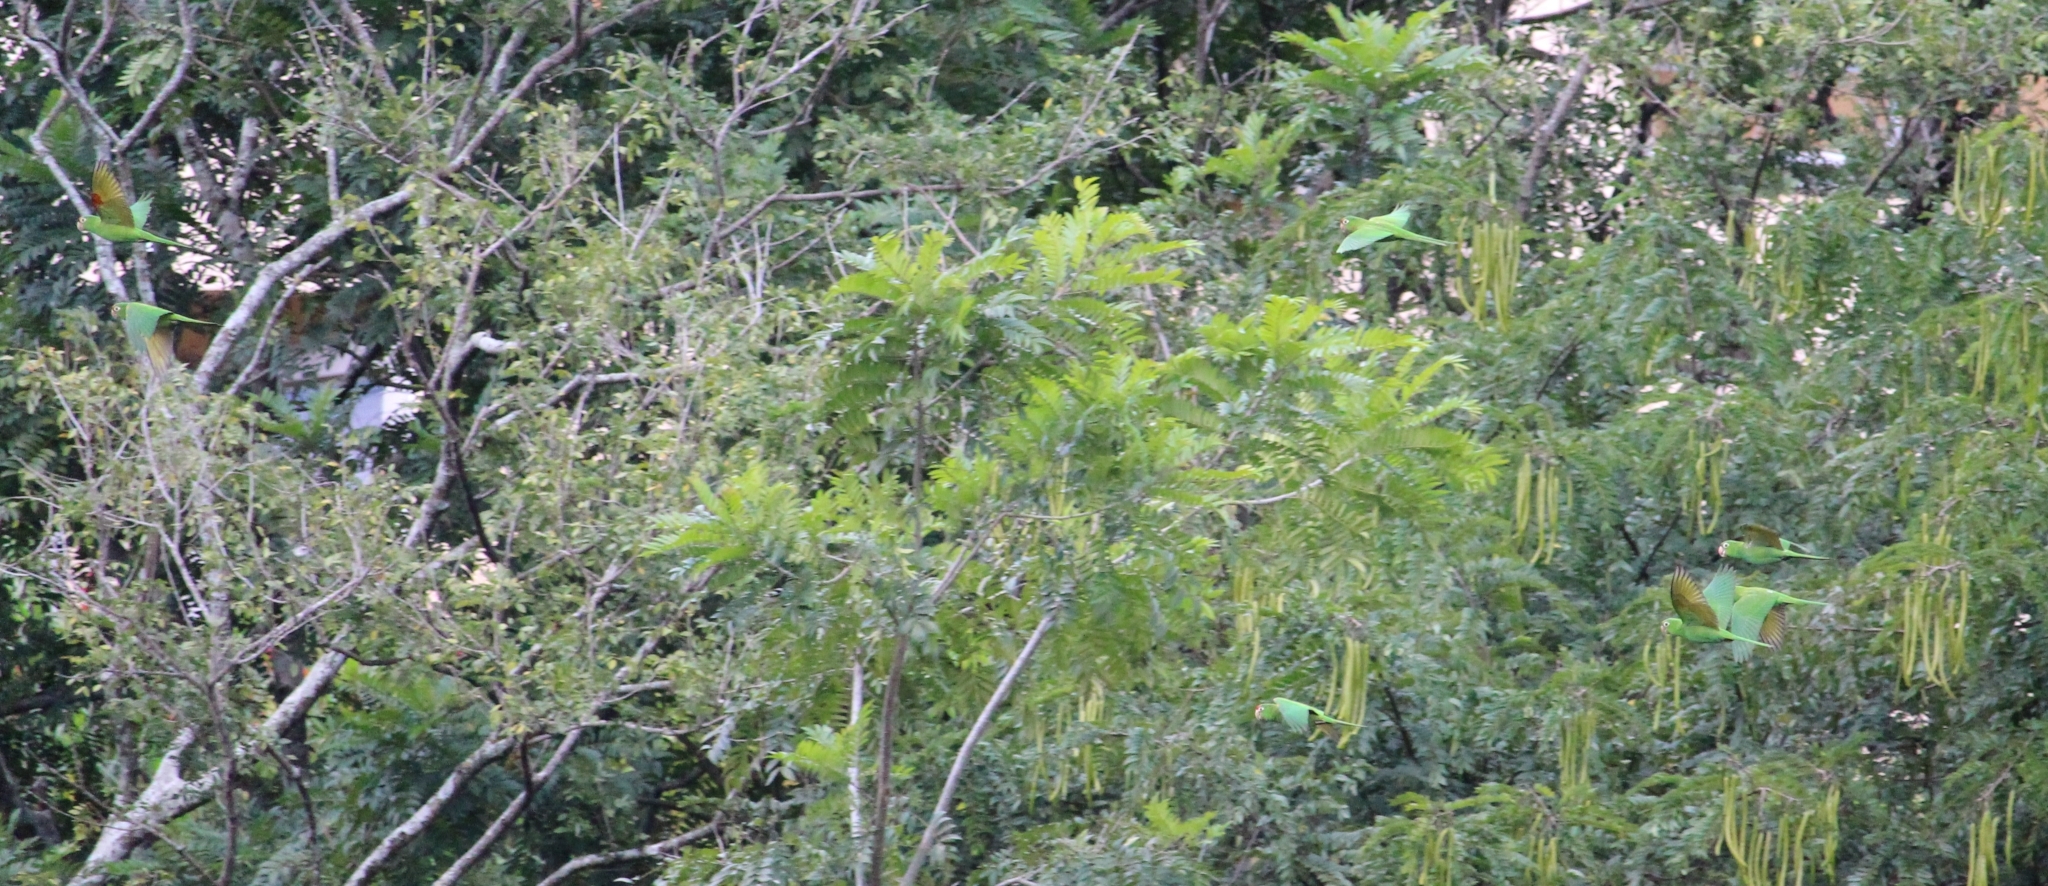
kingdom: Animalia
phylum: Chordata
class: Aves
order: Psittaciformes
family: Psittacidae
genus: Aratinga
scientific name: Aratinga finschi
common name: Crimson-fronted parakeet
